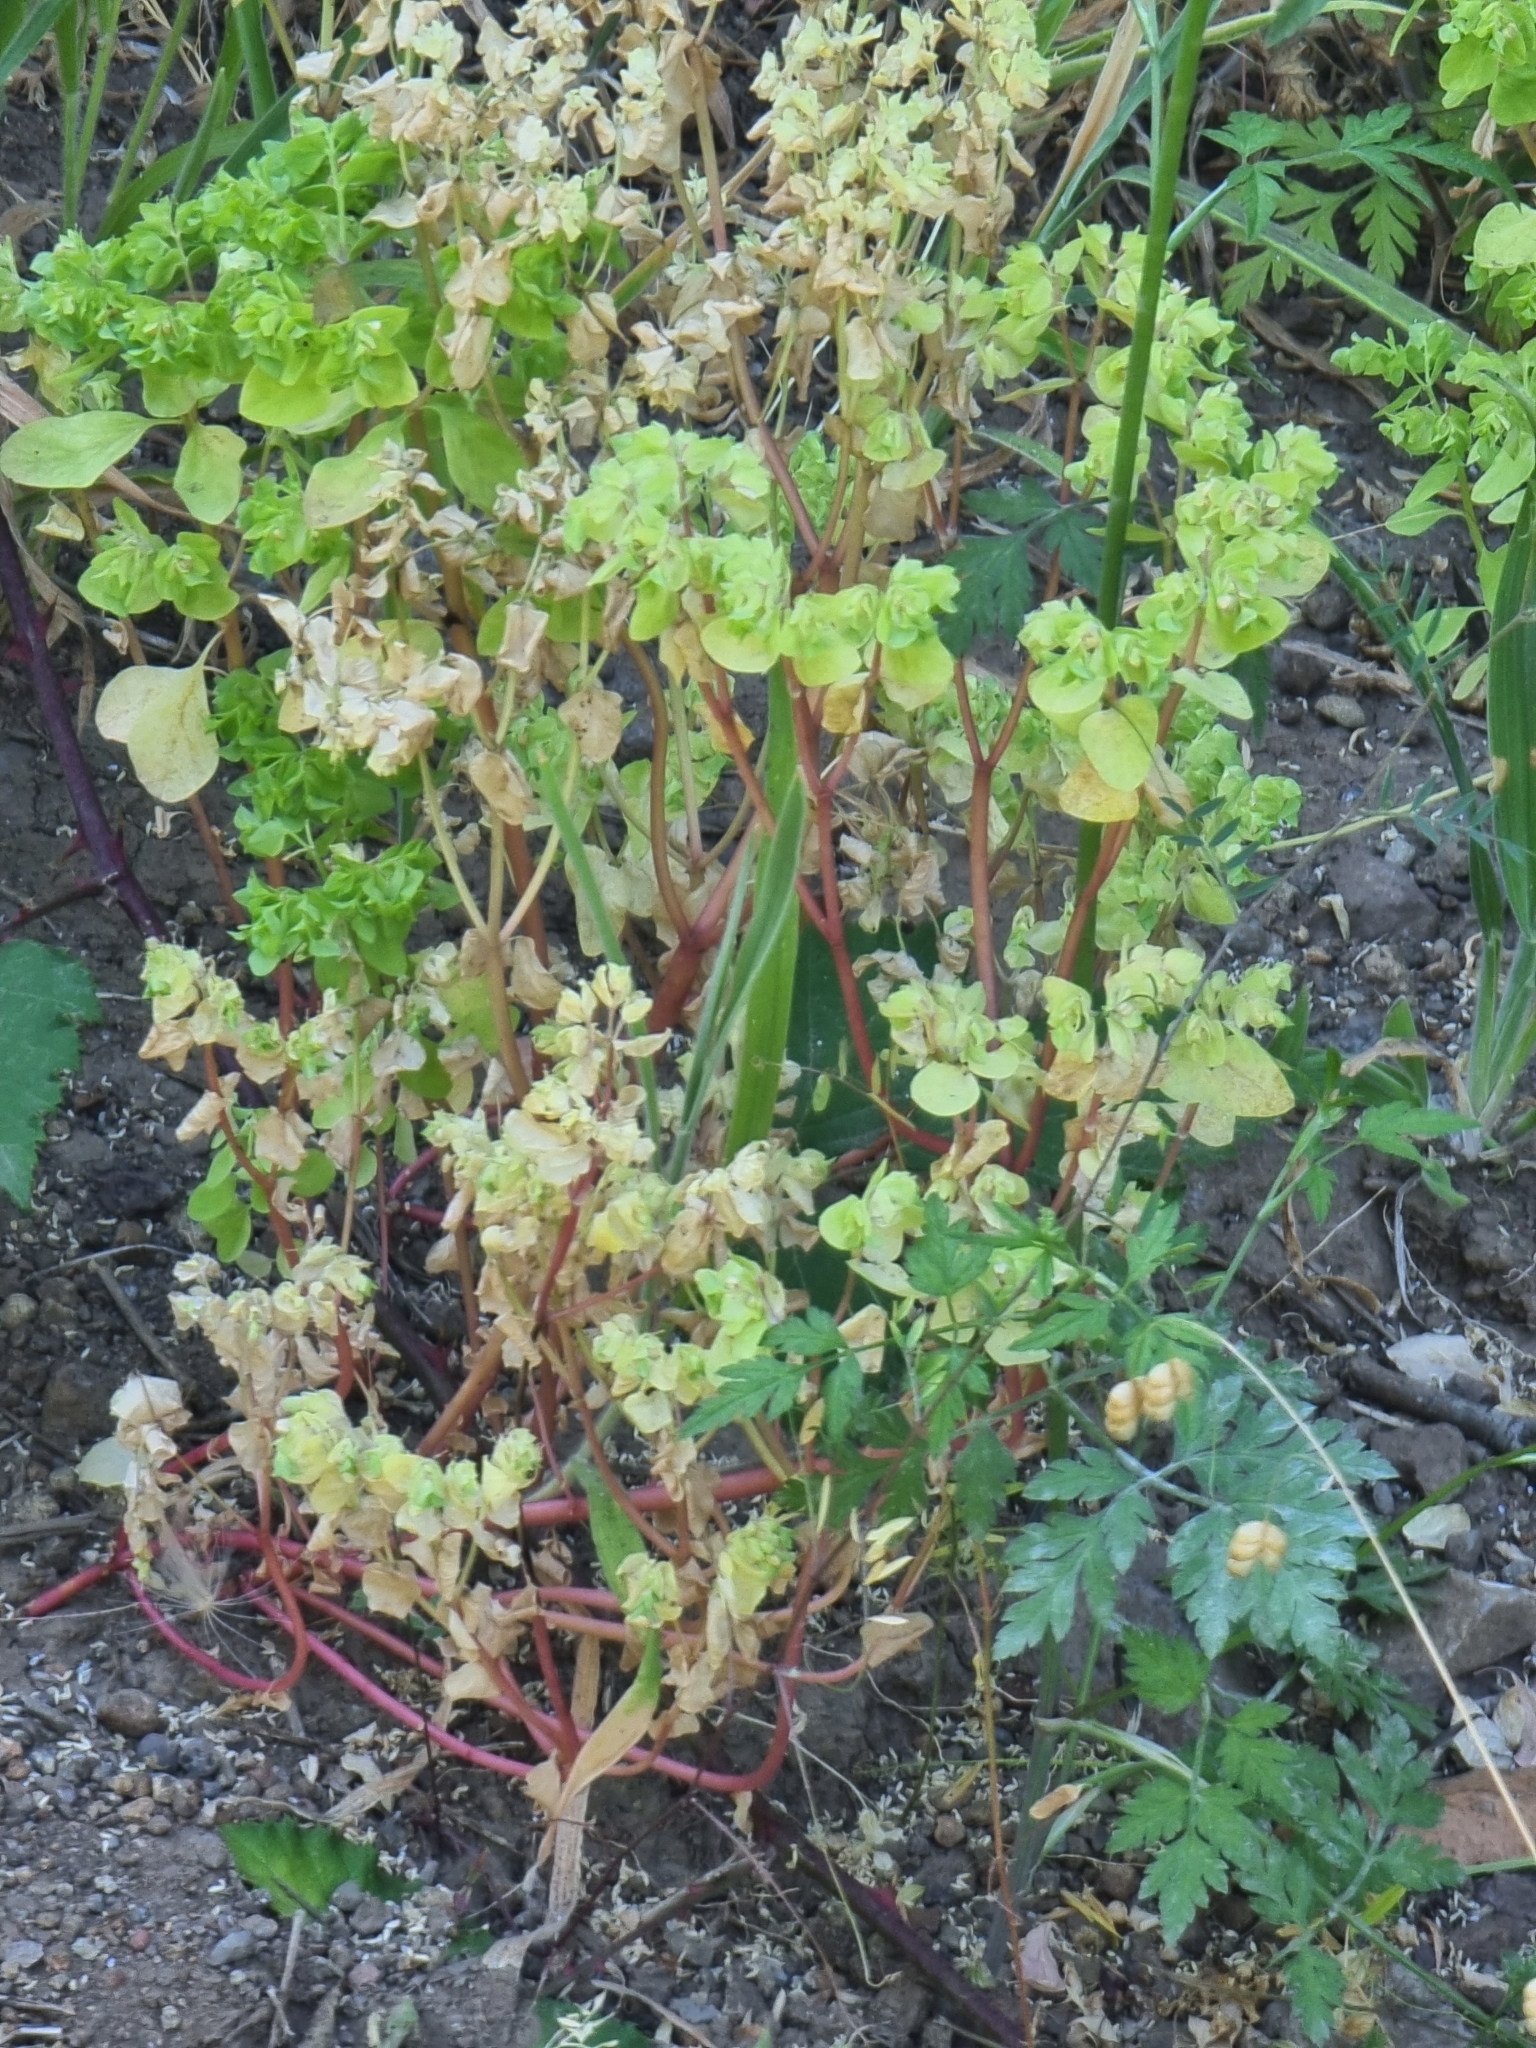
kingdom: Plantae
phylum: Tracheophyta
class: Magnoliopsida
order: Malpighiales
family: Euphorbiaceae
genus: Euphorbia
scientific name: Euphorbia peplus
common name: Petty spurge
